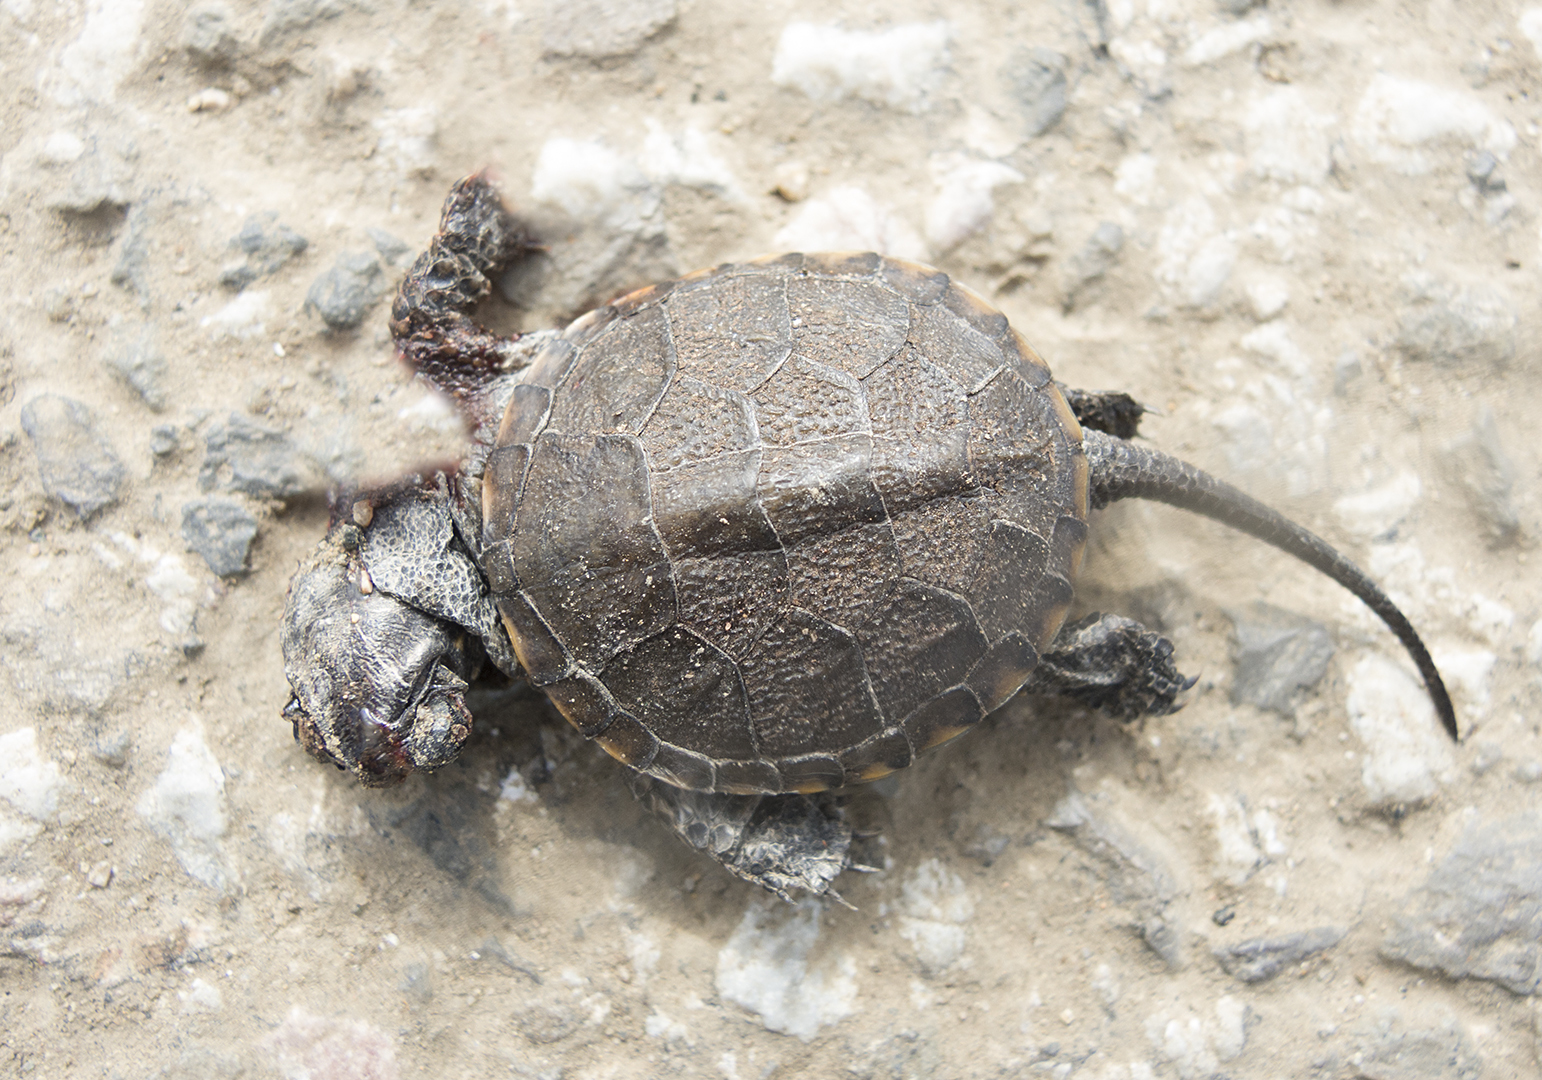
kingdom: Animalia
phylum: Chordata
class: Testudines
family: Emydidae
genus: Emys
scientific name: Emys orbicularis
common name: European pond turtle
